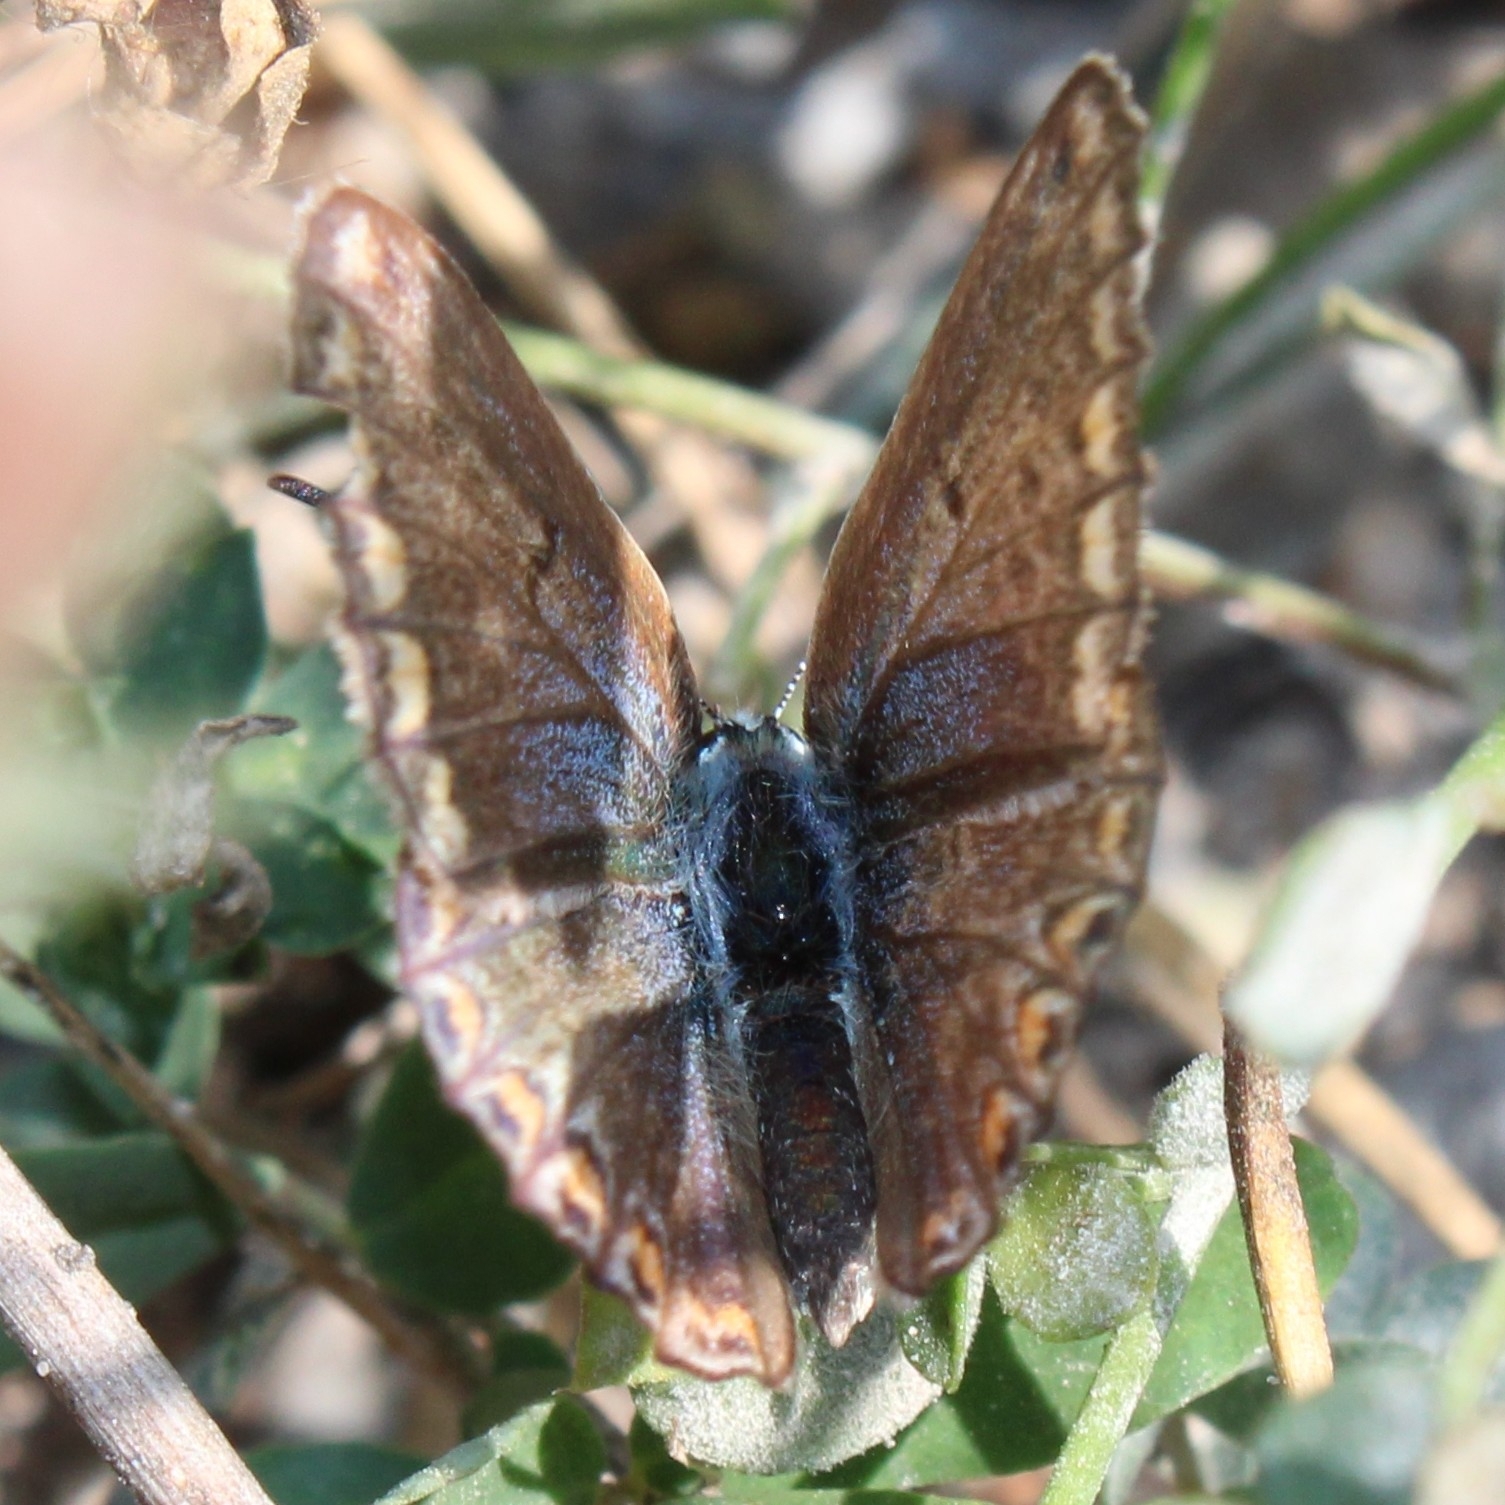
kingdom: Animalia
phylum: Arthropoda
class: Insecta
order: Lepidoptera
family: Lycaenidae
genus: Polyommatus
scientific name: Polyommatus icarus
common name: Common blue
